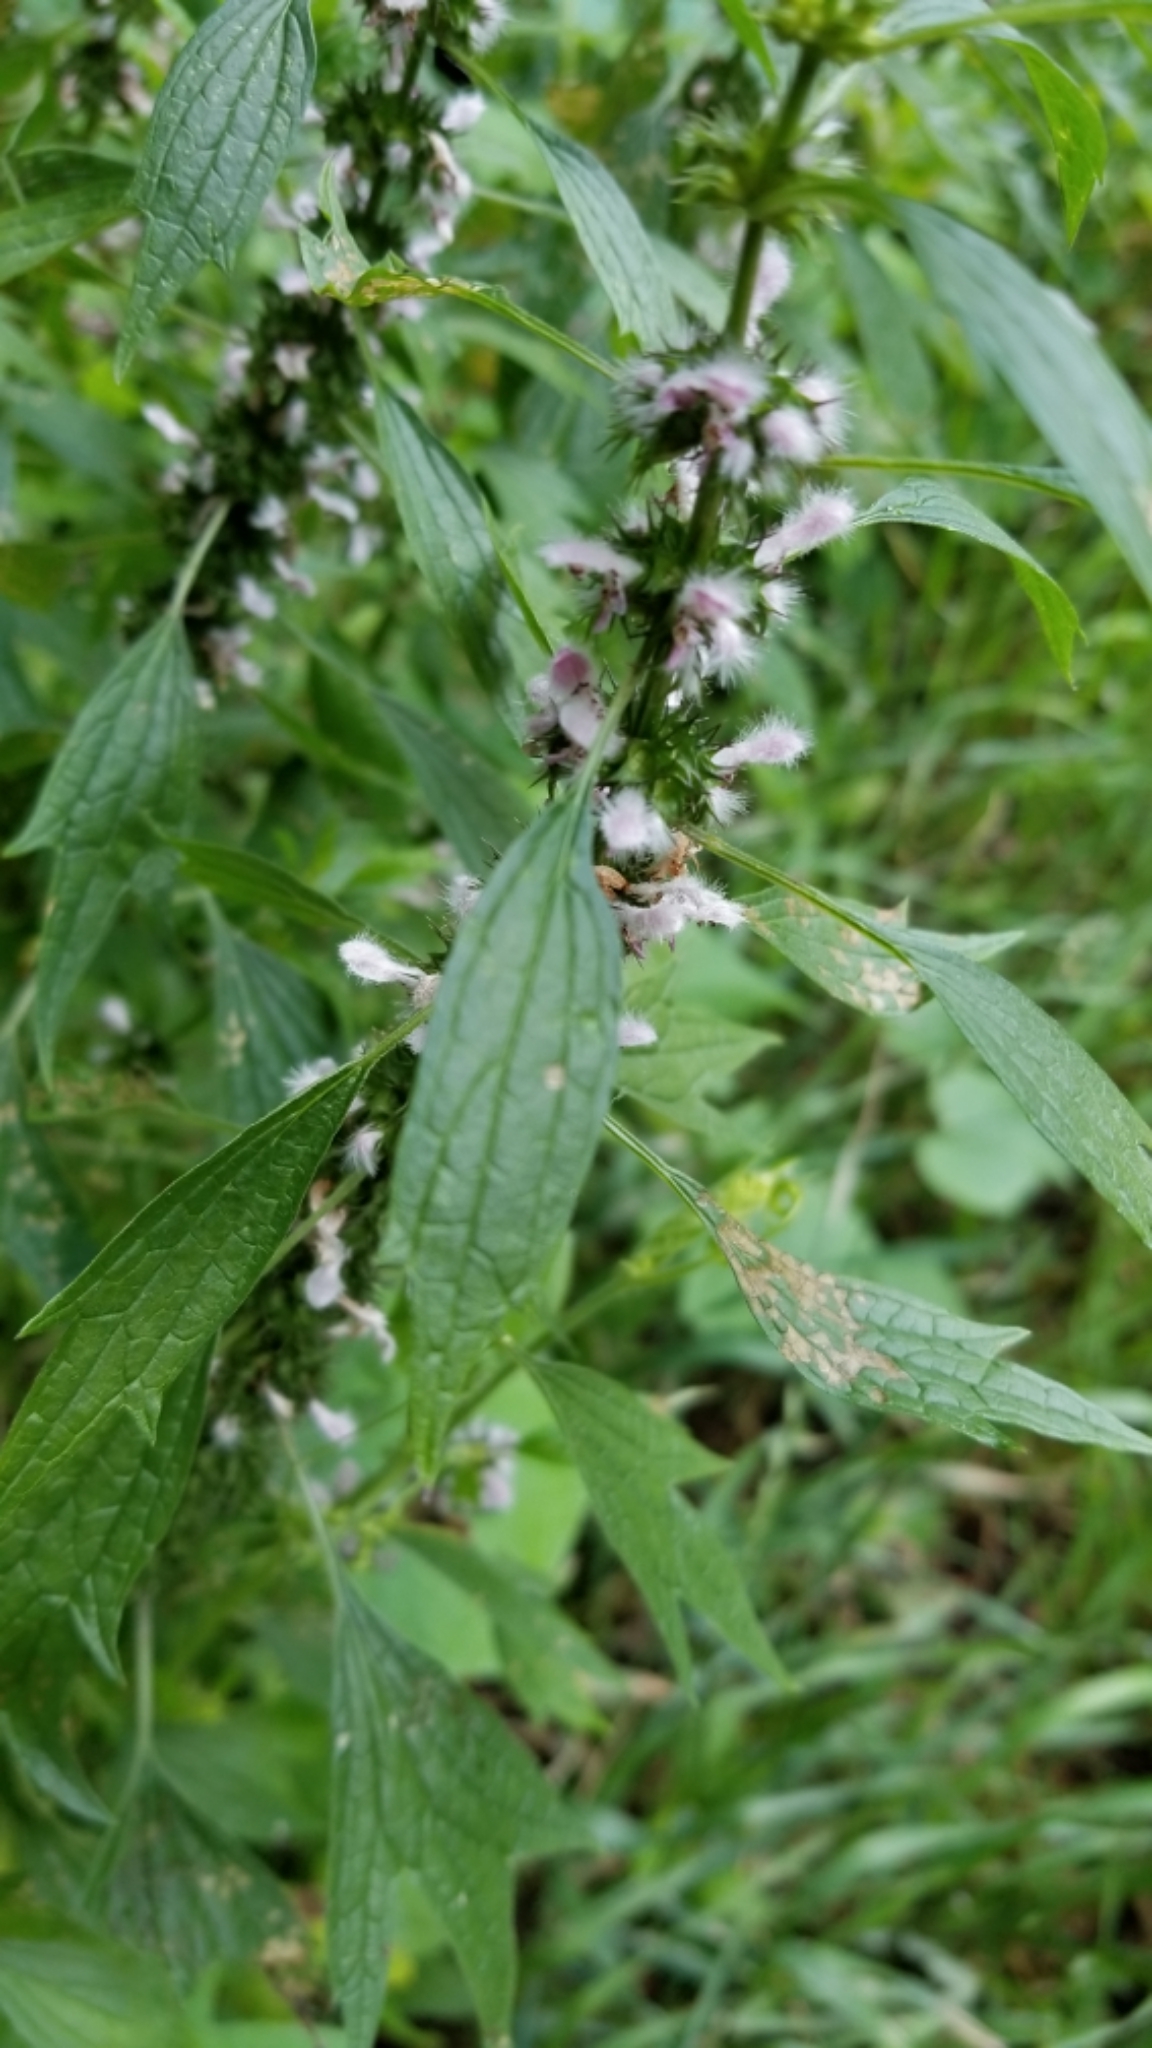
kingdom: Plantae
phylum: Tracheophyta
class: Magnoliopsida
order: Lamiales
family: Lamiaceae
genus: Leonurus
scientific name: Leonurus cardiaca
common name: Motherwort
